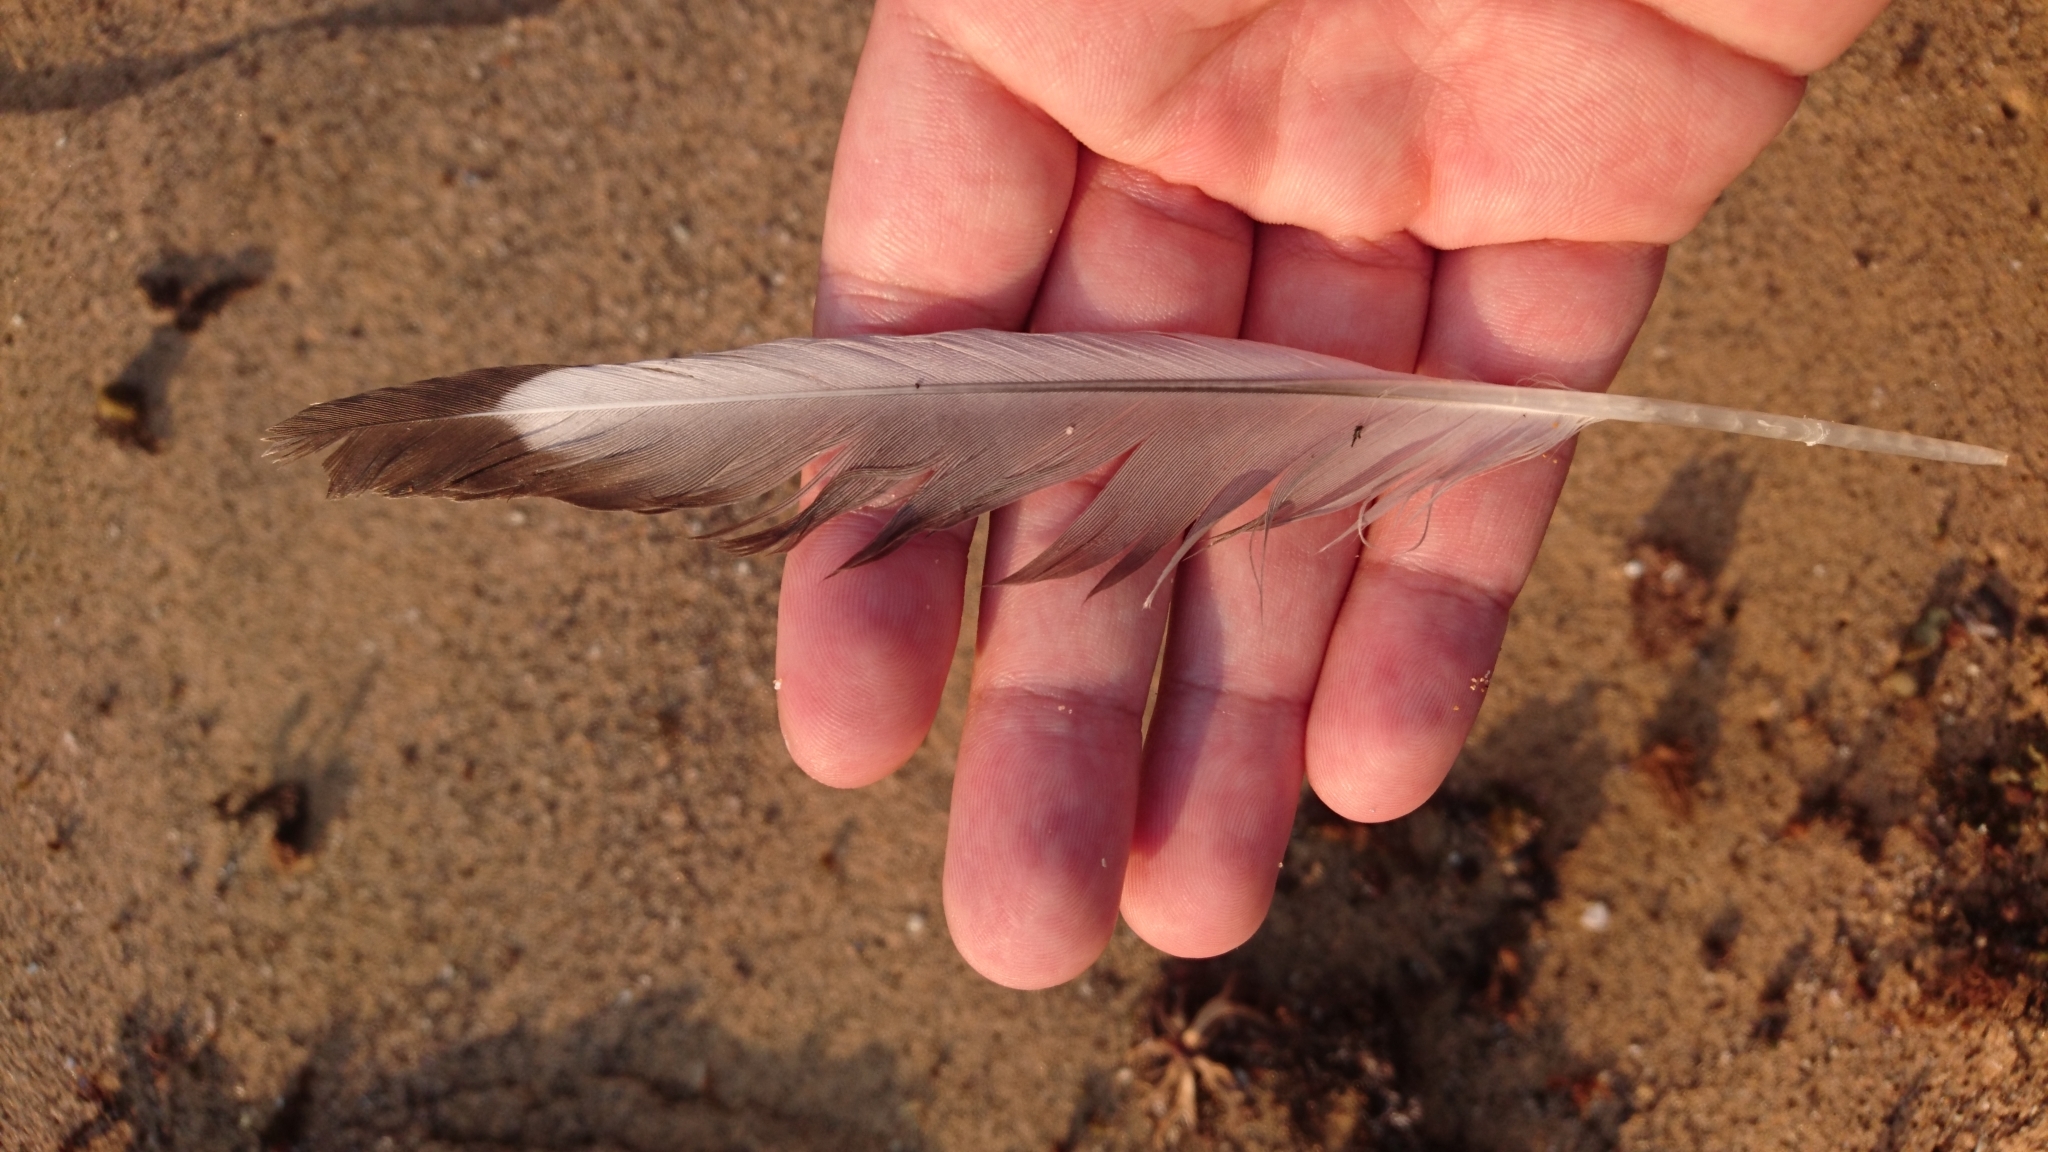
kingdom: Animalia
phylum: Chordata
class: Aves
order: Charadriiformes
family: Laridae
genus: Chroicocephalus
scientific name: Chroicocephalus novaehollandiae
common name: Silver gull
